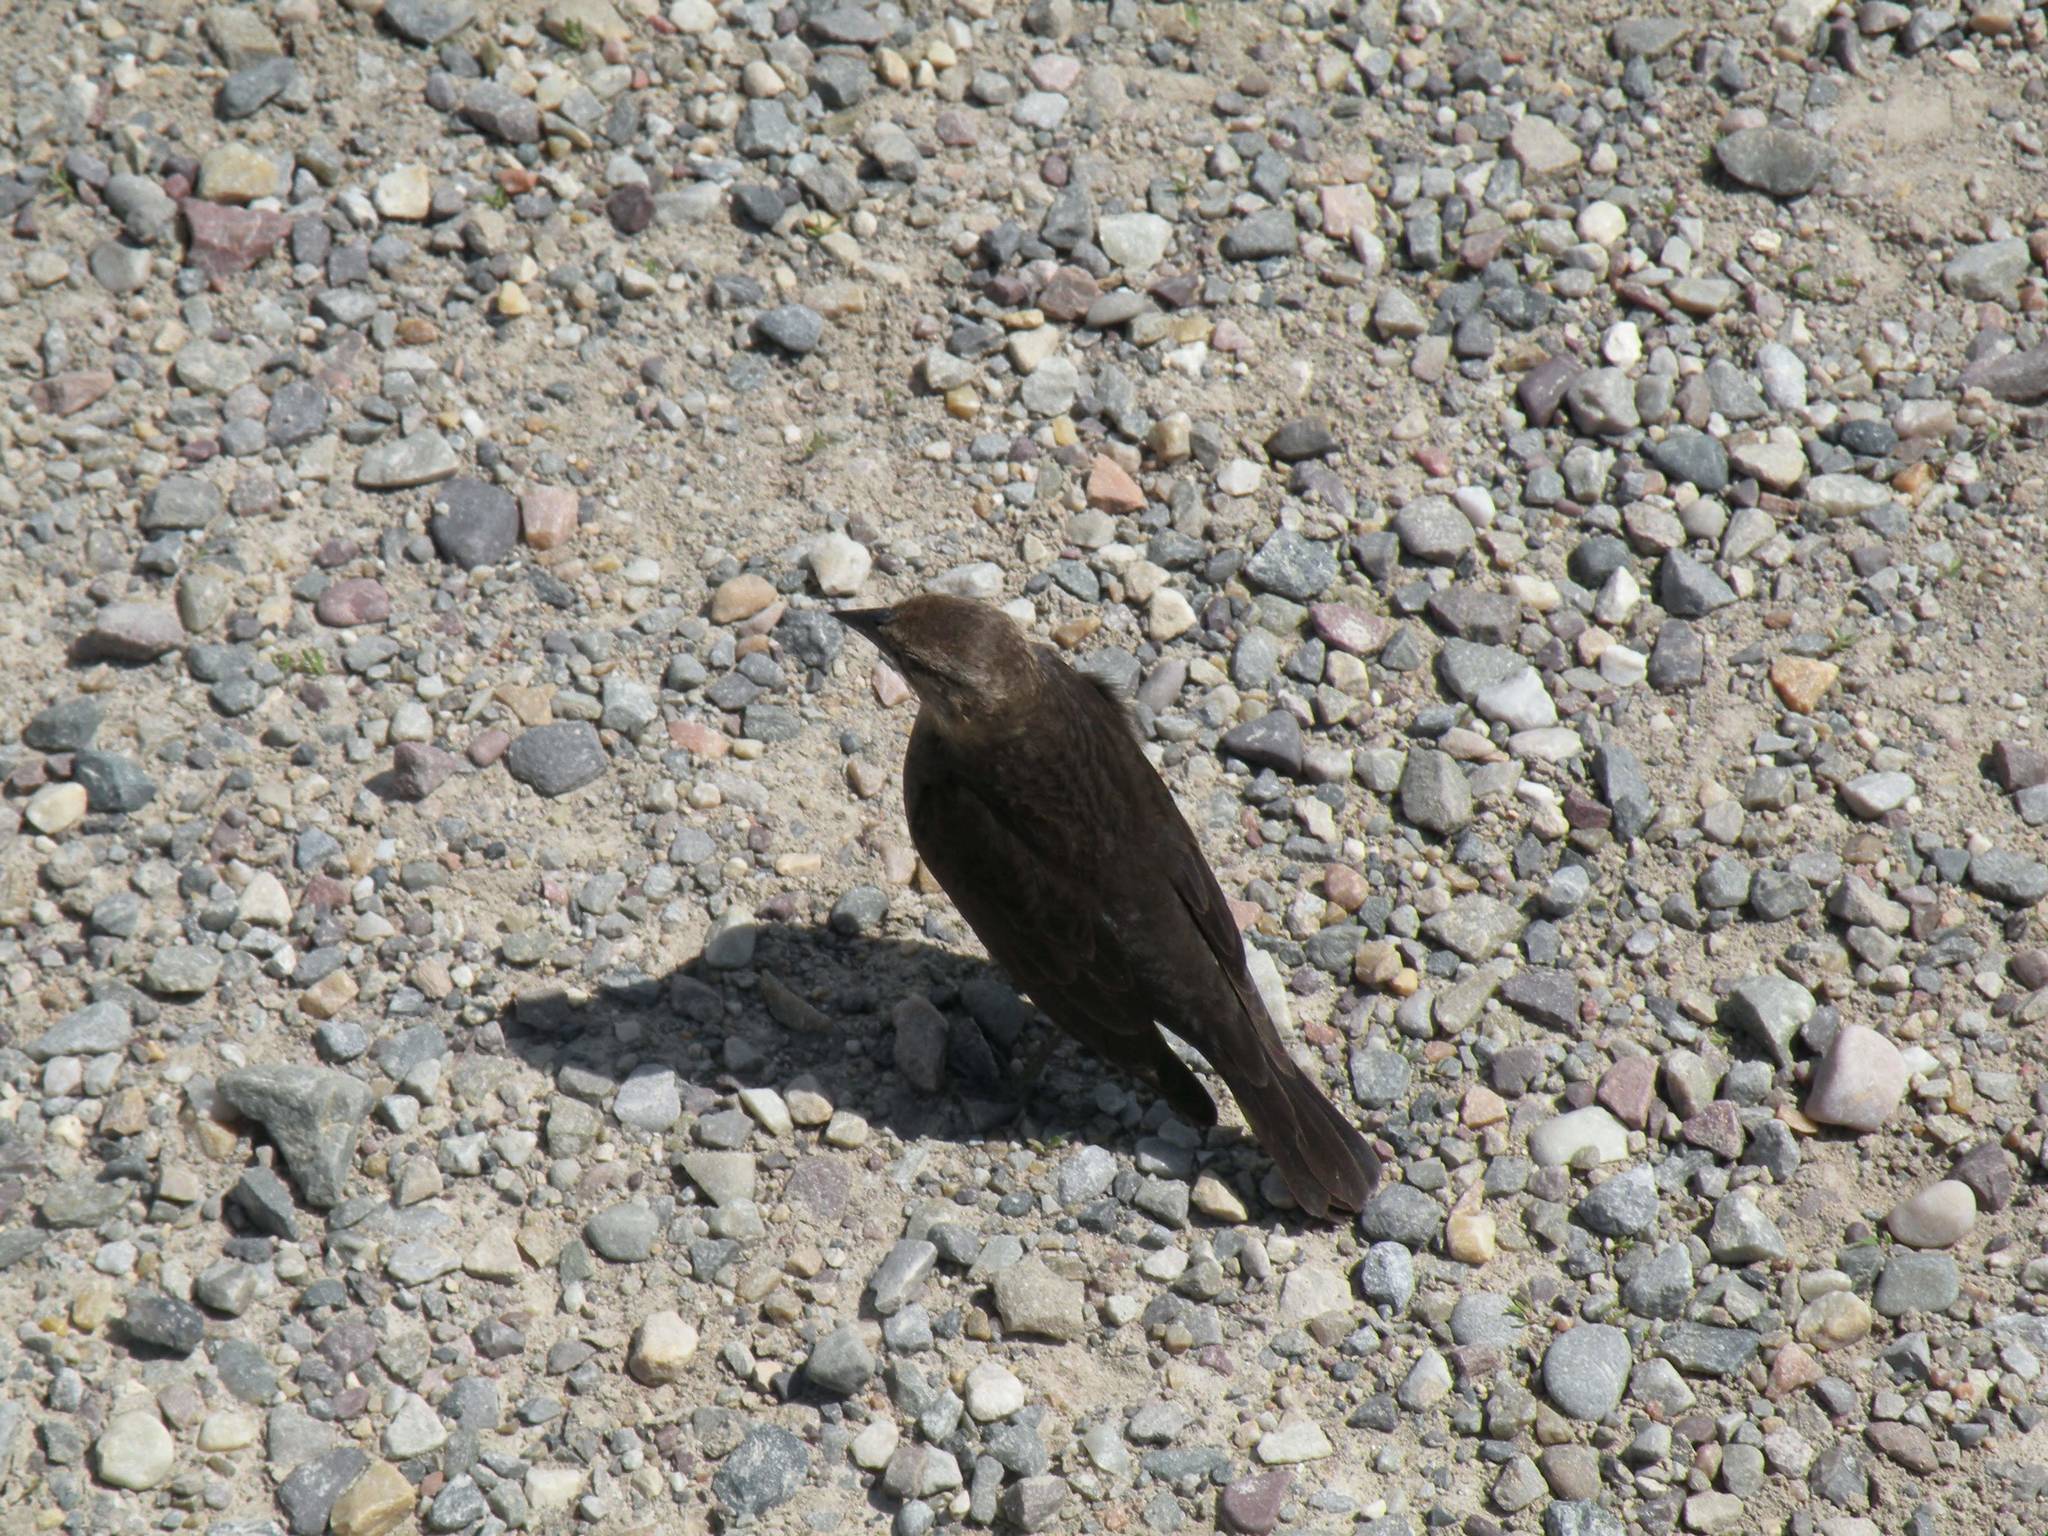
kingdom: Animalia
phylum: Chordata
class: Aves
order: Passeriformes
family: Icteridae
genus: Euphagus
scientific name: Euphagus cyanocephalus
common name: Brewer's blackbird
